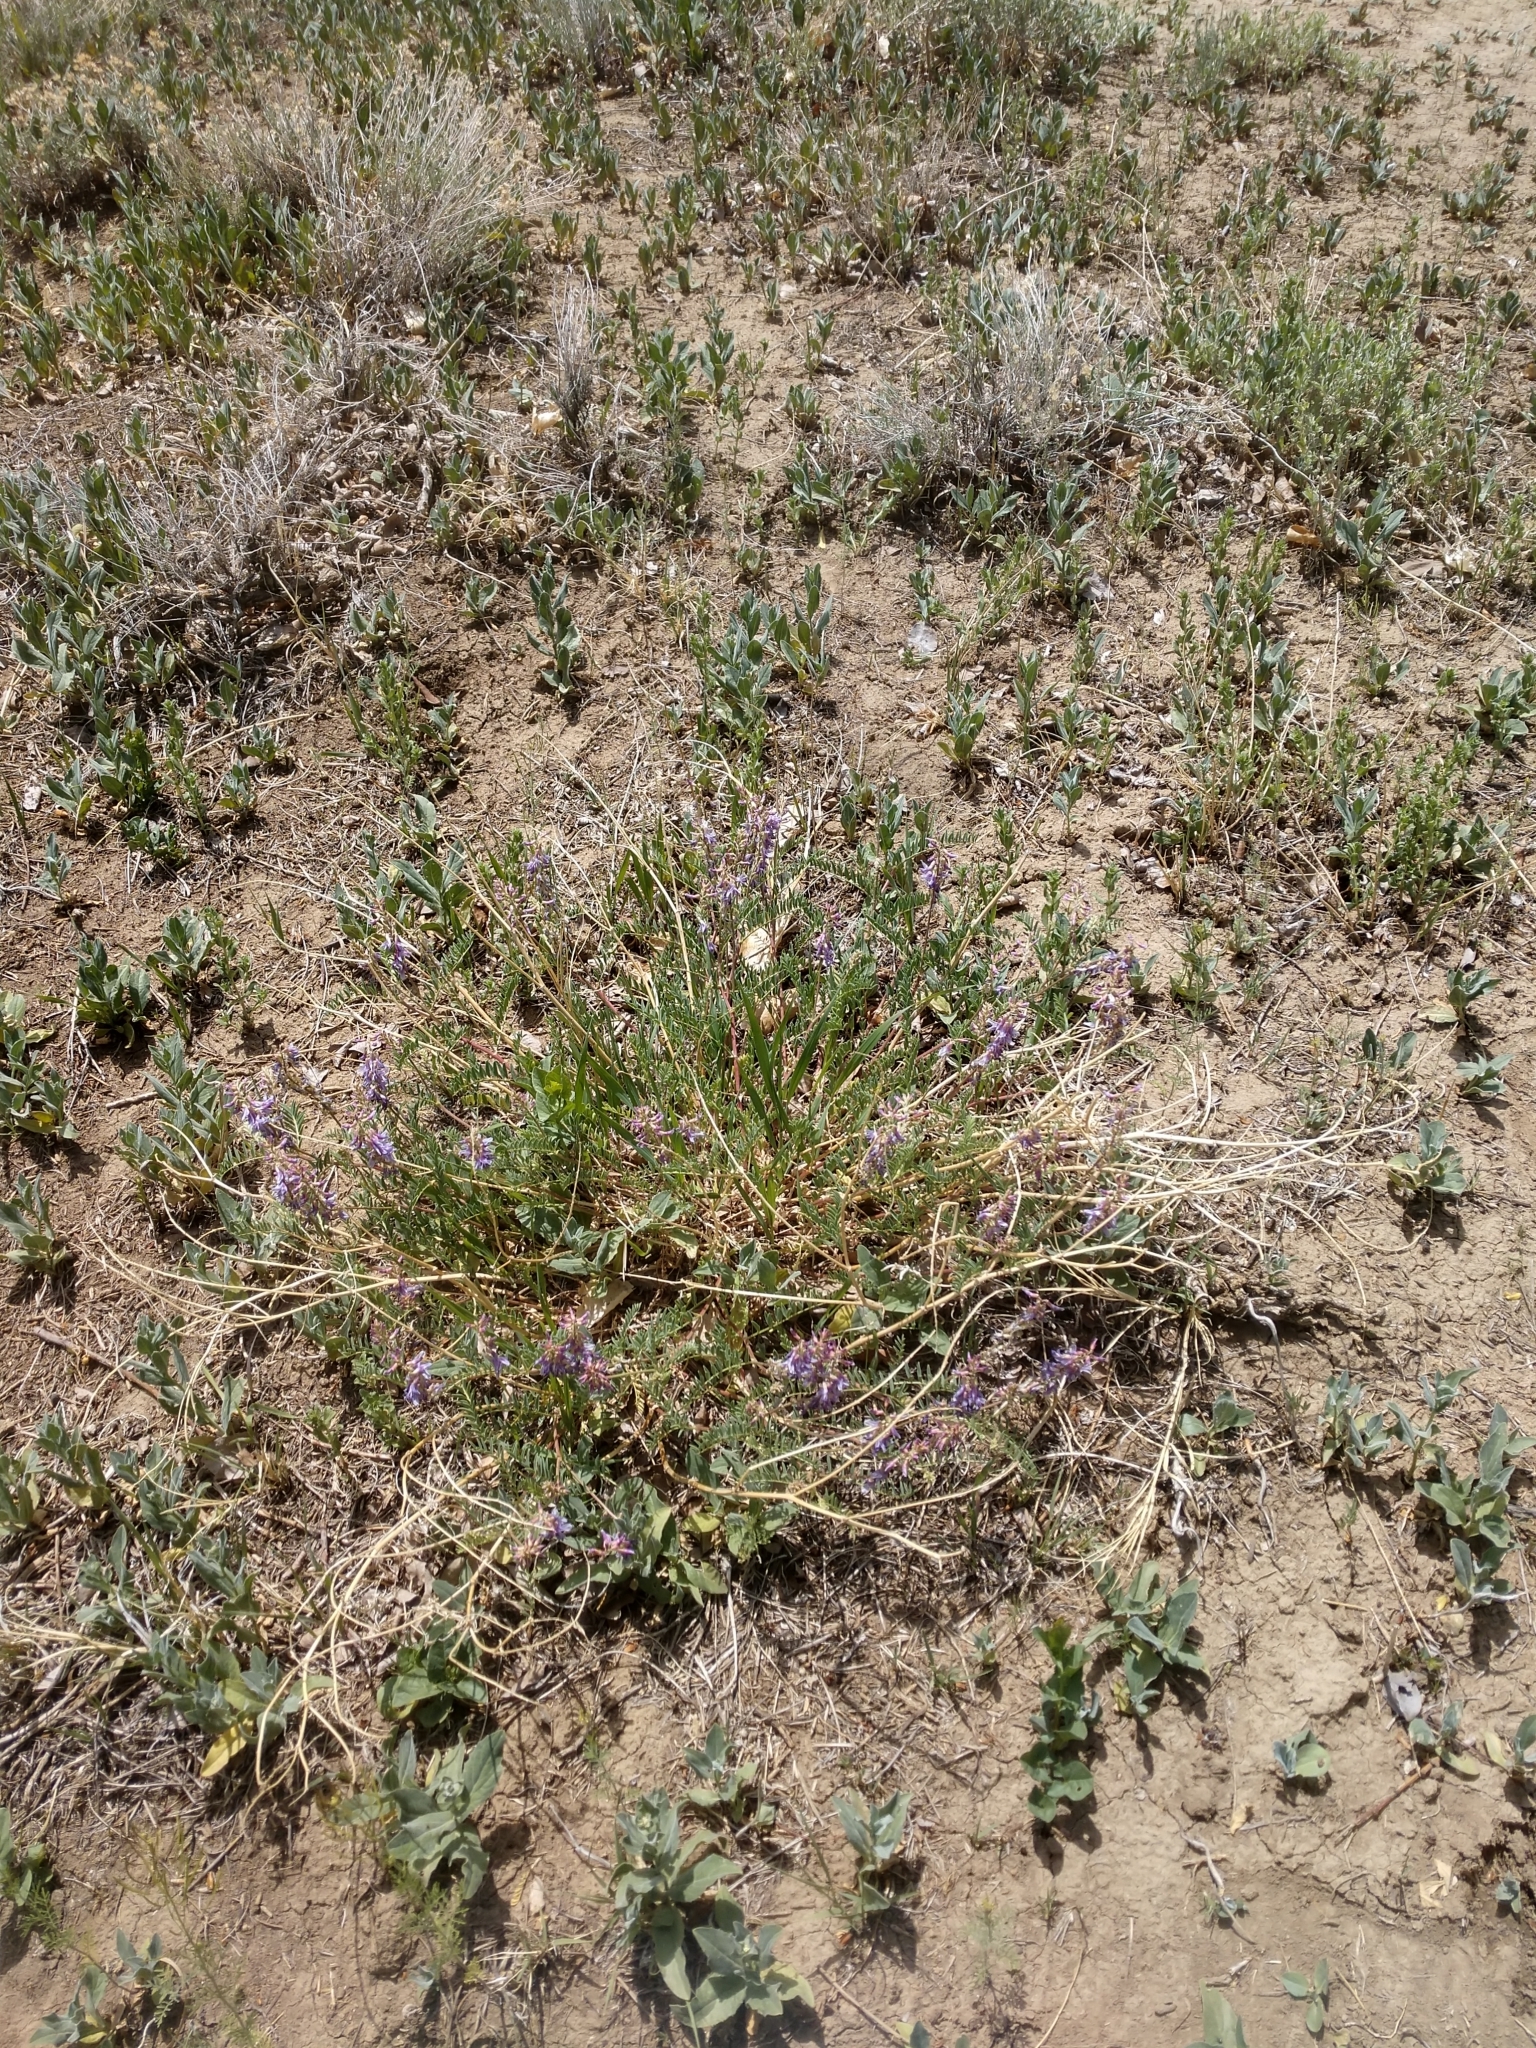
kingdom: Plantae
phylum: Tracheophyta
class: Magnoliopsida
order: Fabales
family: Fabaceae
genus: Astragalus
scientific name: Astragalus bisulcatus
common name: Two-groove milk-vetch
